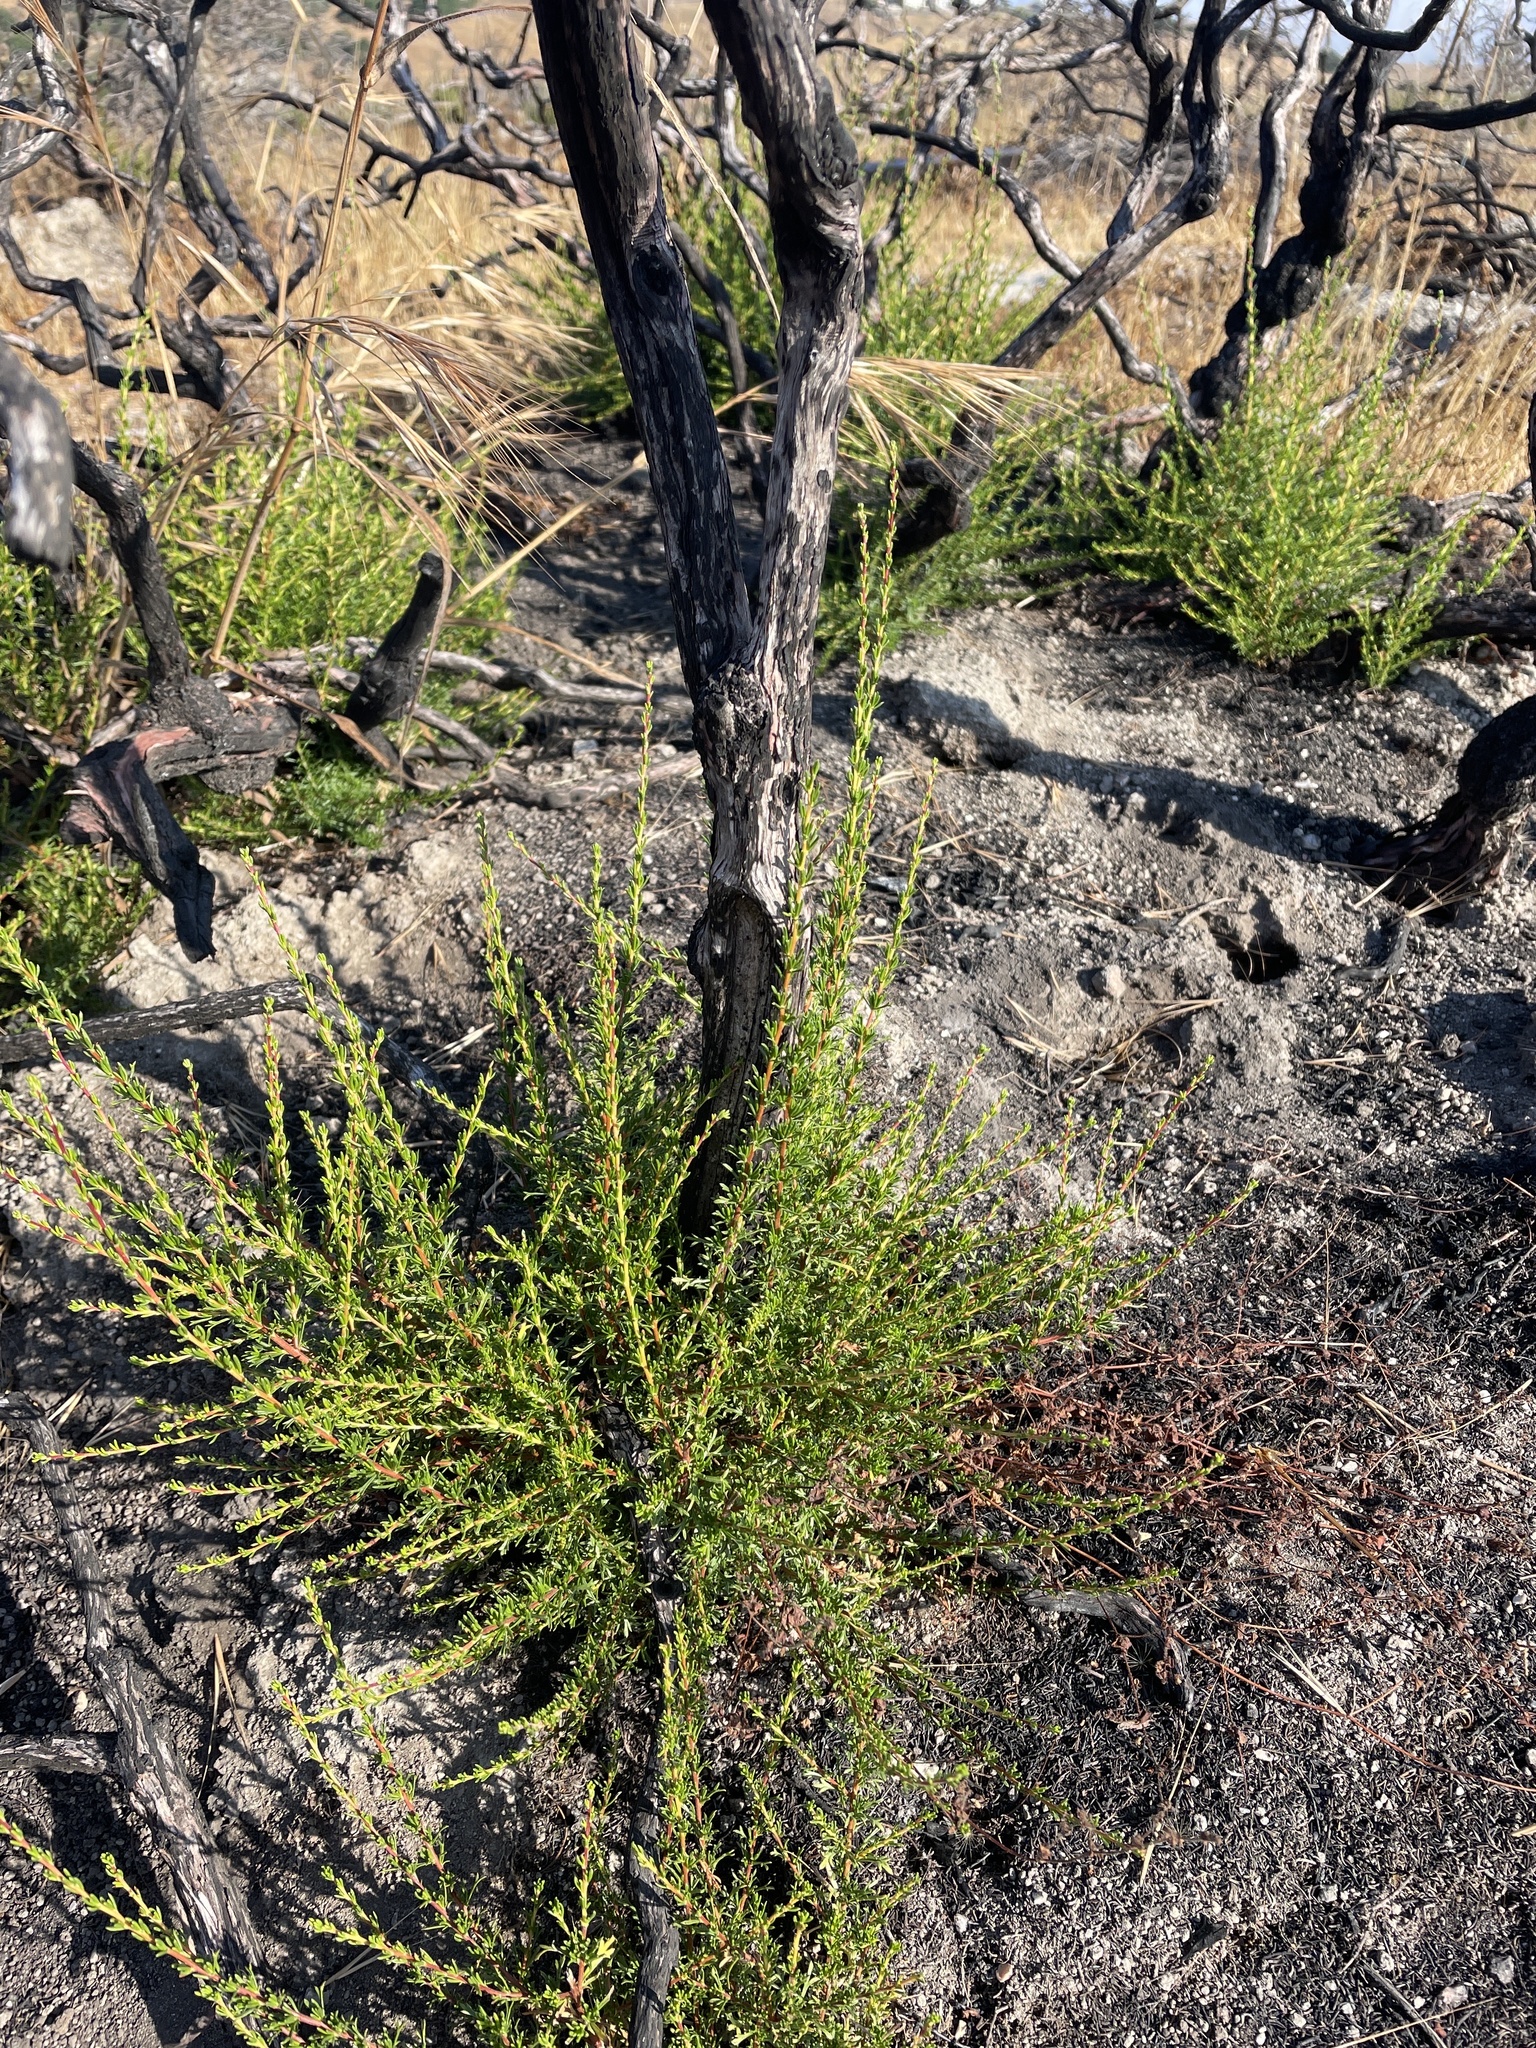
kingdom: Plantae
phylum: Tracheophyta
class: Magnoliopsida
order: Rosales
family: Rosaceae
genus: Adenostoma
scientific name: Adenostoma fasciculatum
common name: Chamise
